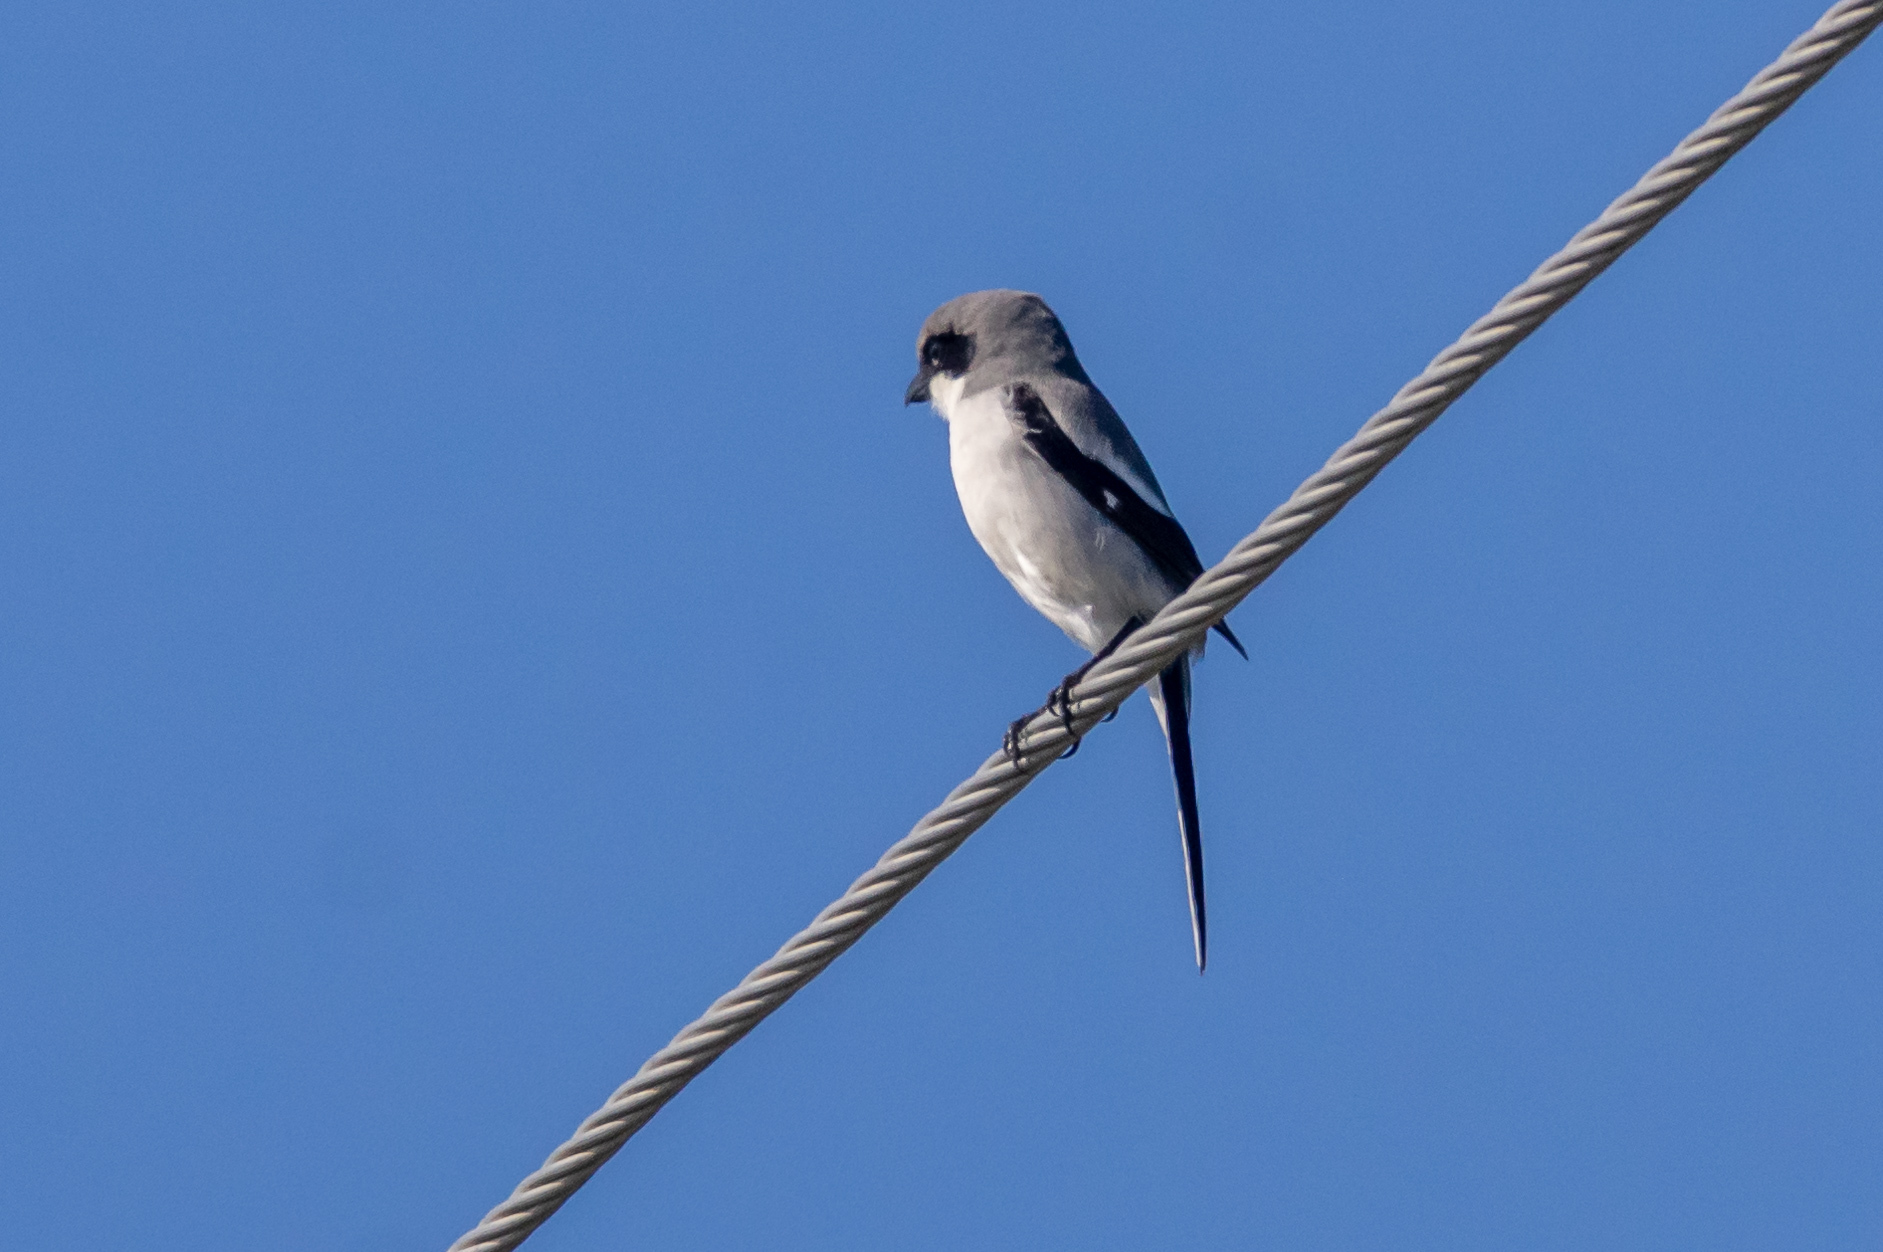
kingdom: Animalia
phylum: Chordata
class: Aves
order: Passeriformes
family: Laniidae
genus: Lanius
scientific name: Lanius ludovicianus
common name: Loggerhead shrike
